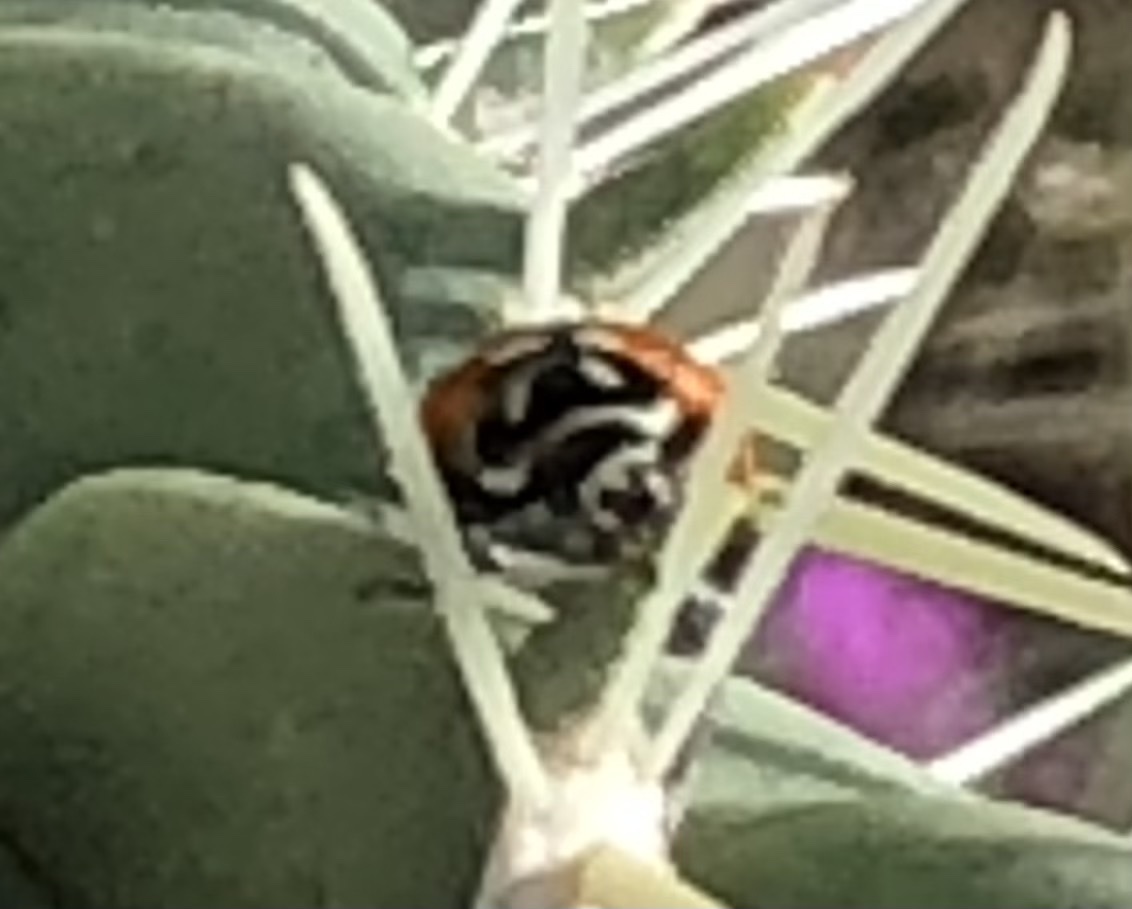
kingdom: Animalia
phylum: Arthropoda
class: Insecta
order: Coleoptera
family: Coccinellidae
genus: Hippodamia
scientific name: Hippodamia convergens
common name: Convergent lady beetle
